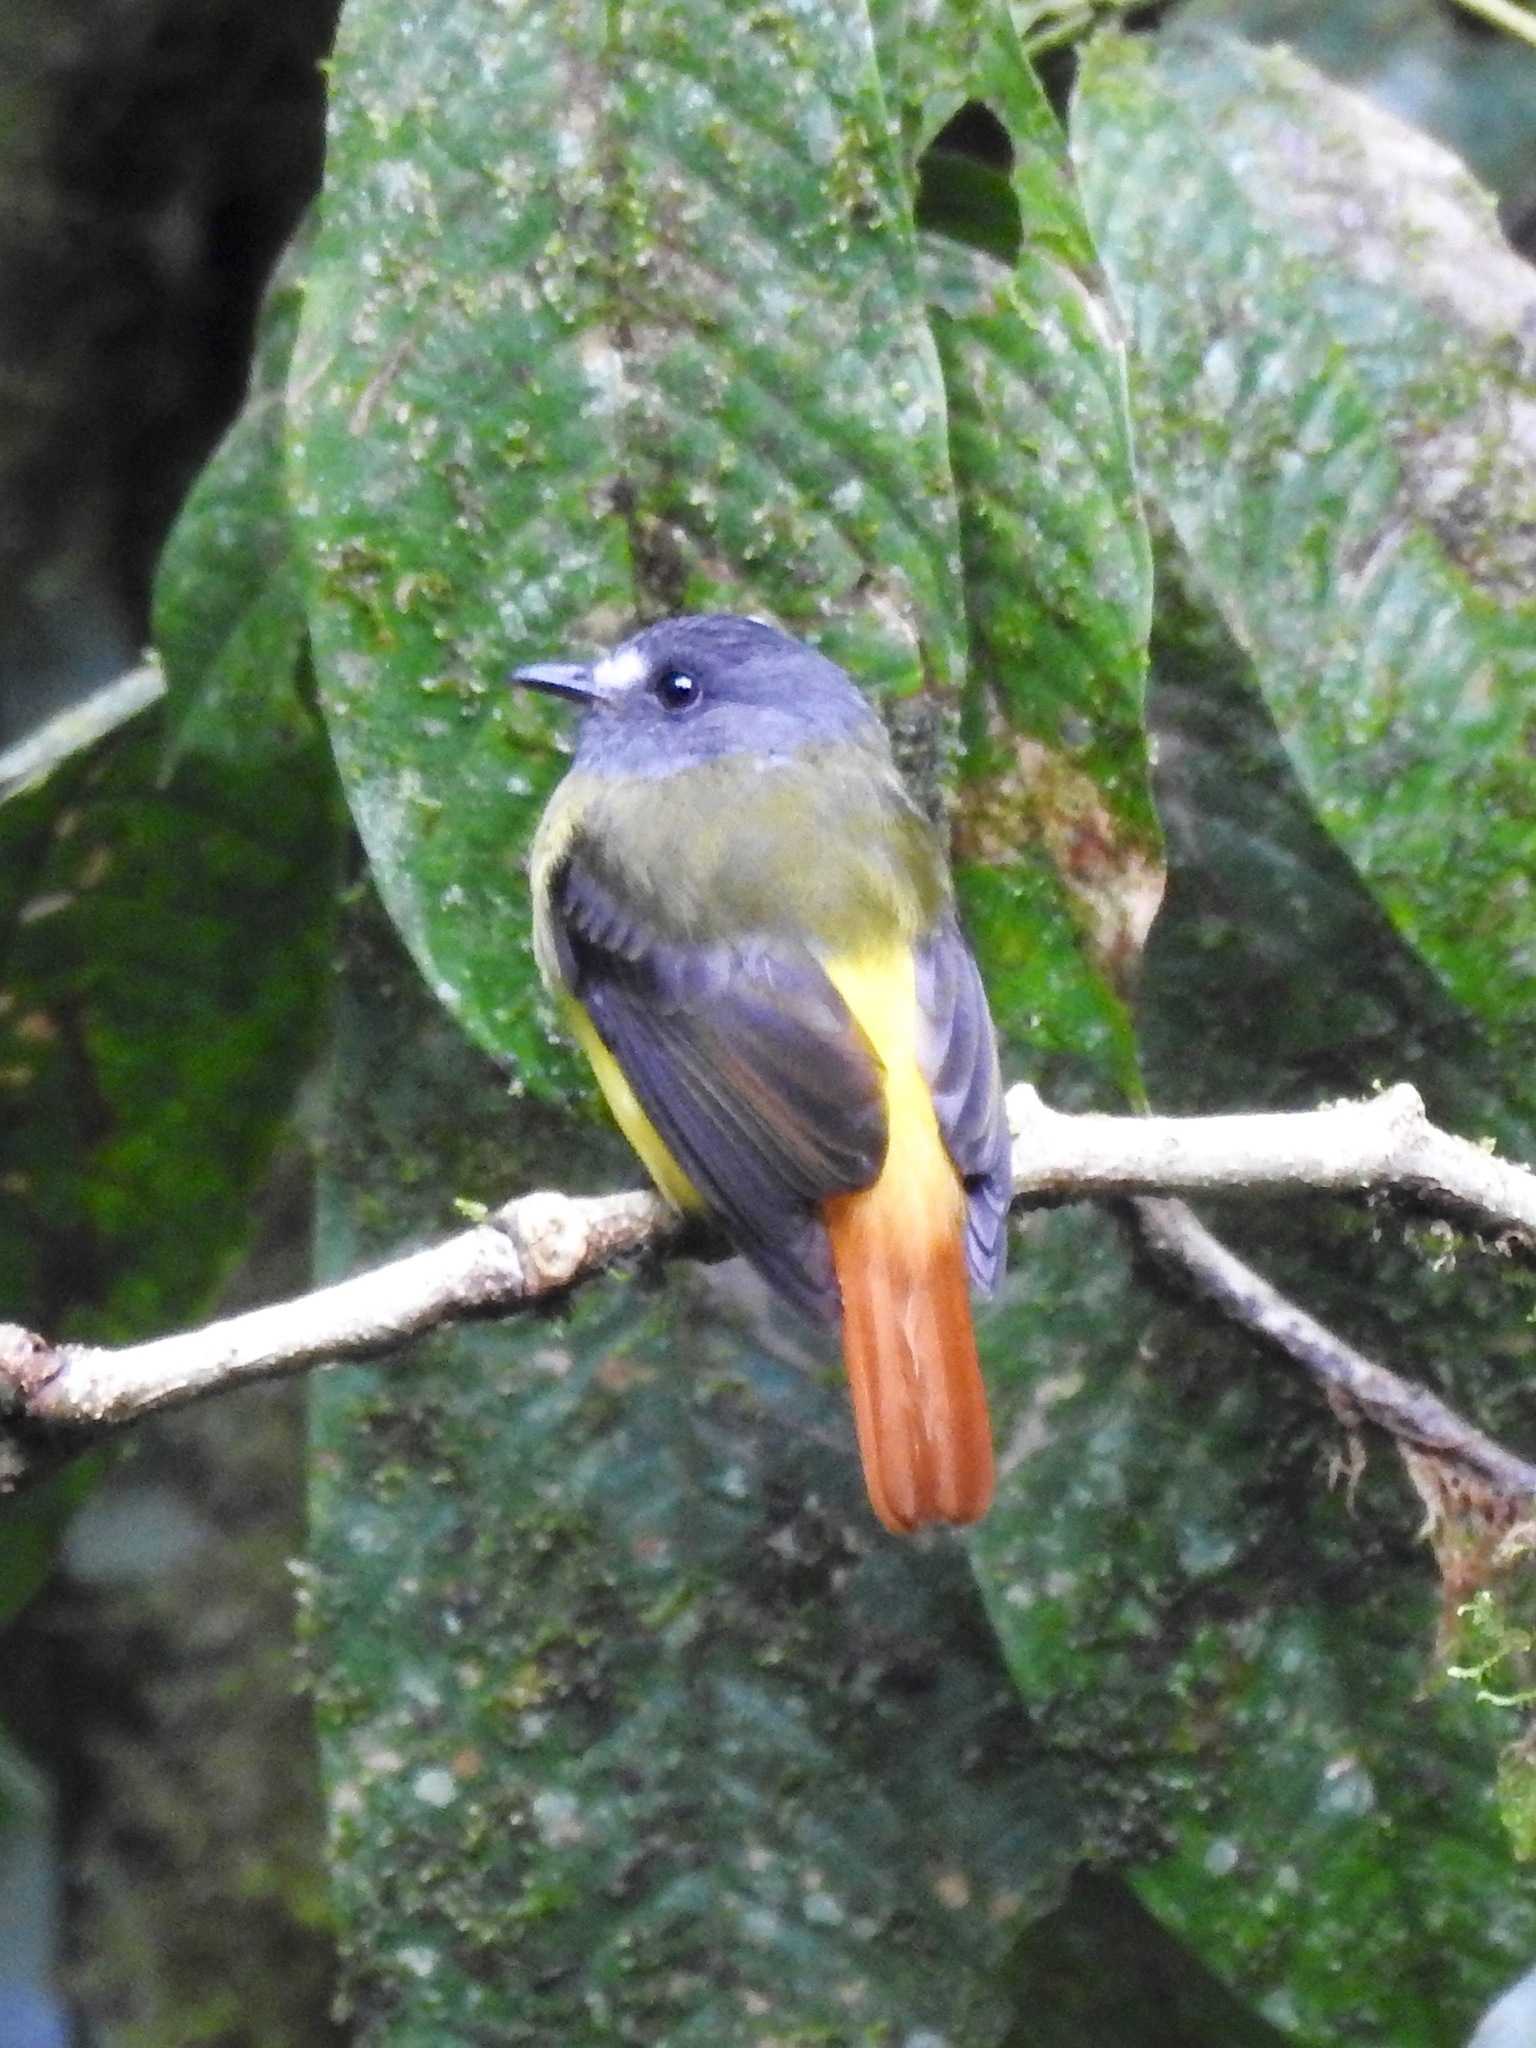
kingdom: Animalia
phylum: Chordata
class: Aves
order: Passeriformes
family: Tyrannidae
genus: Myiotriccus
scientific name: Myiotriccus ornatus
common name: Ornate flycatcher
